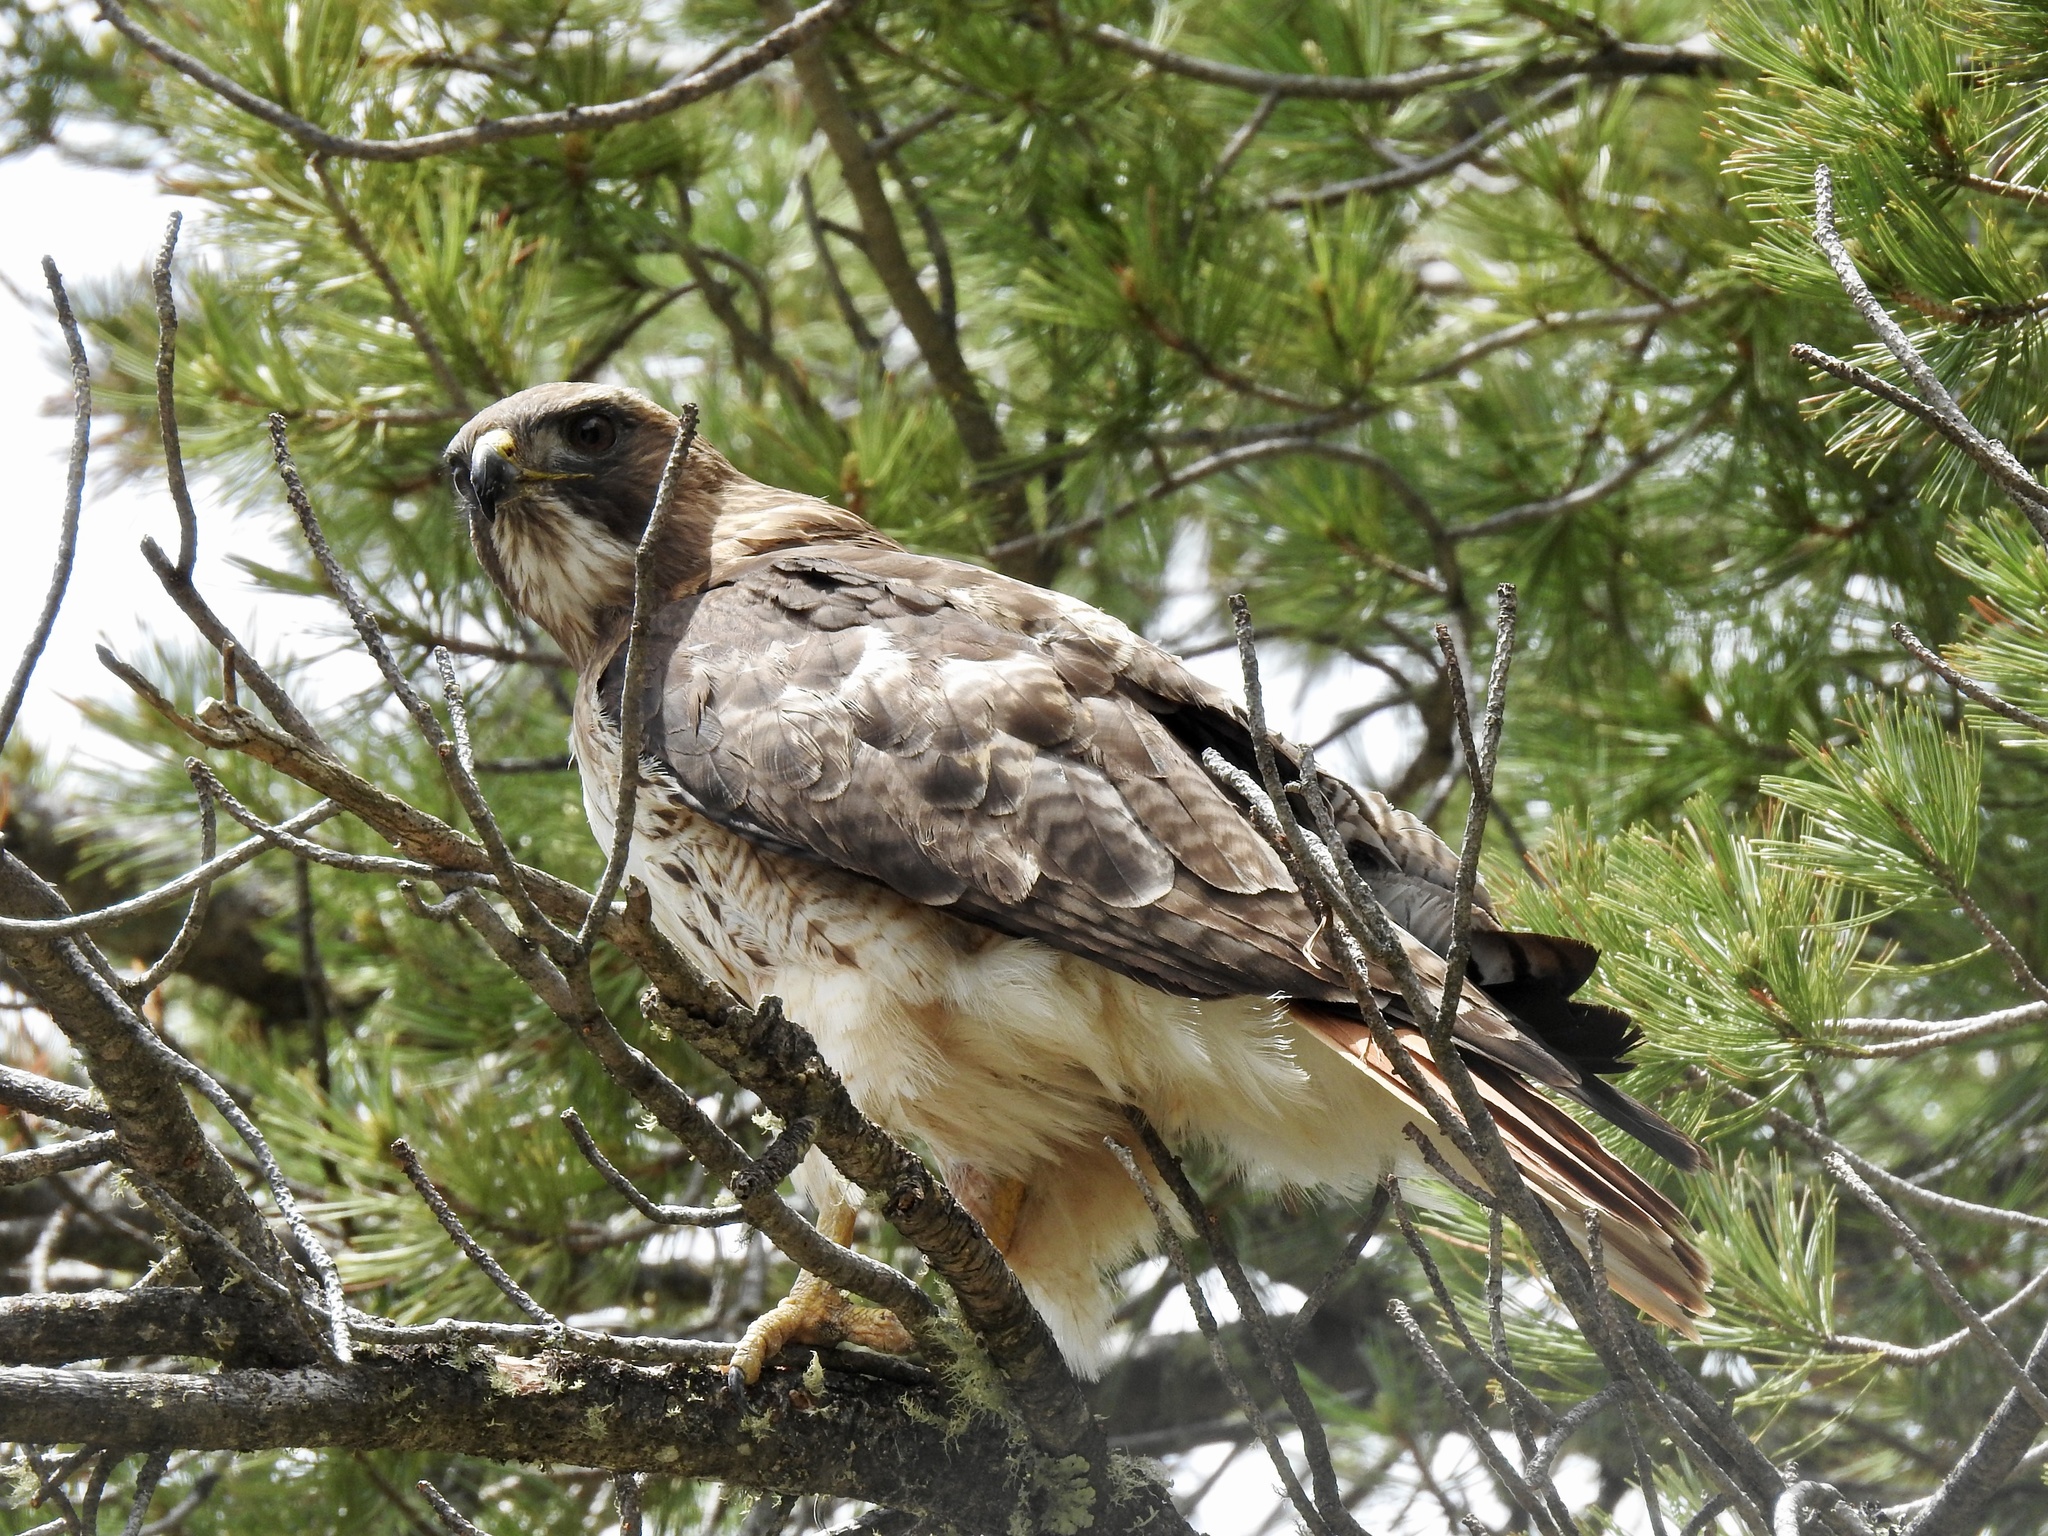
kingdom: Animalia
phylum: Chordata
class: Aves
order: Accipitriformes
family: Accipitridae
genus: Buteo
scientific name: Buteo jamaicensis
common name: Red-tailed hawk
